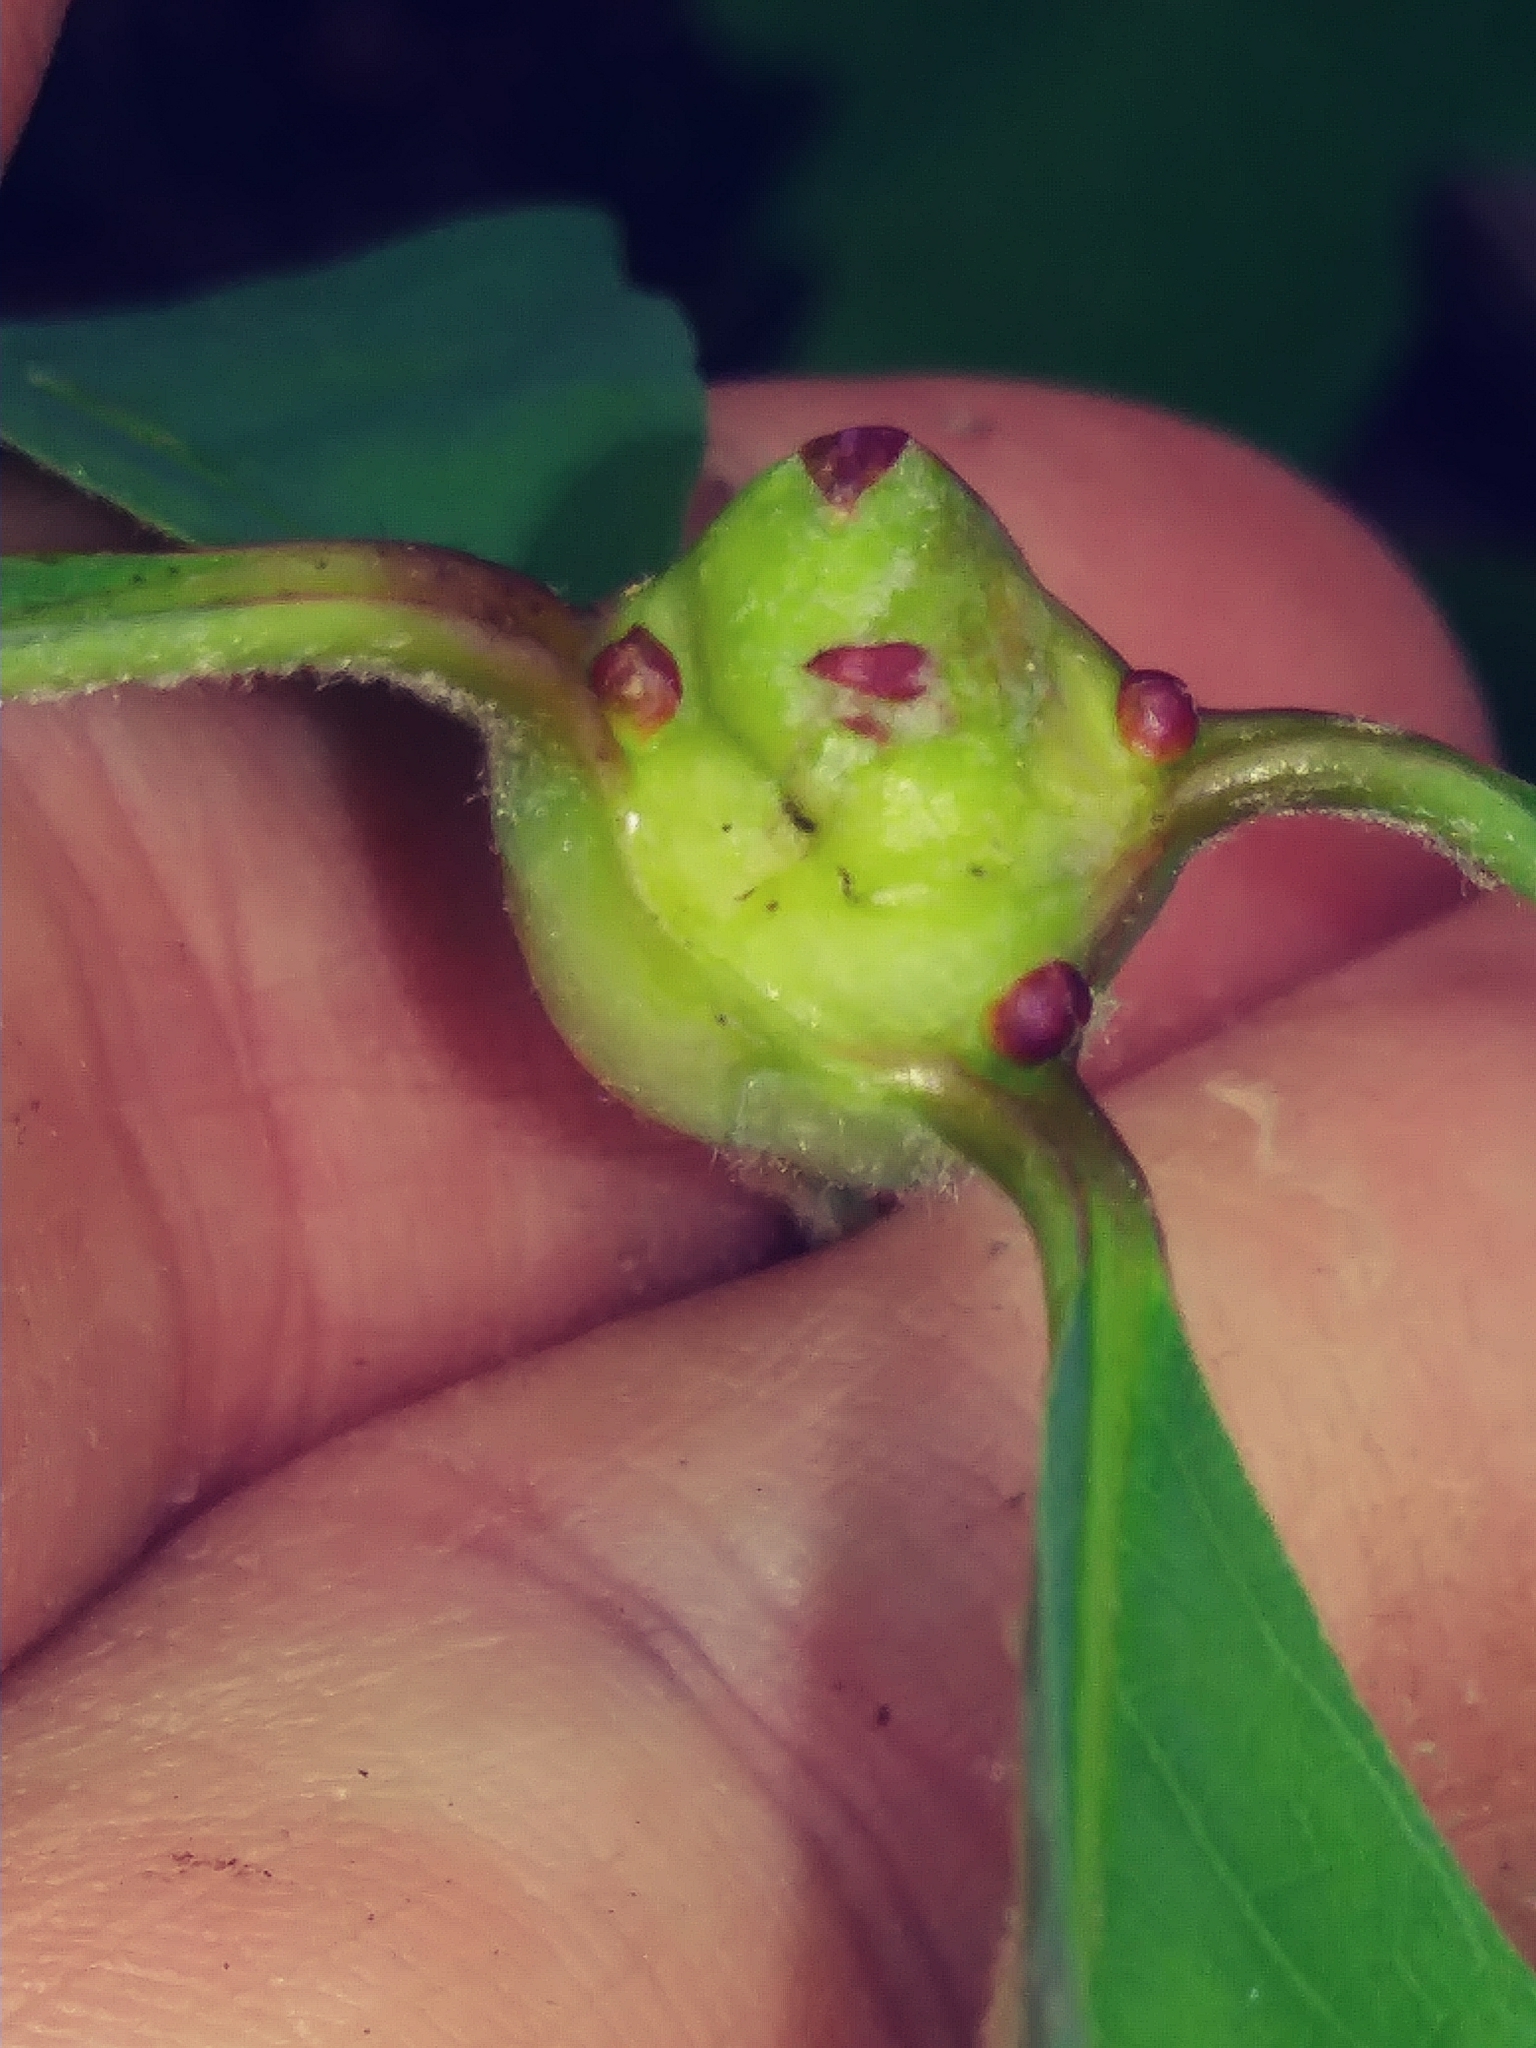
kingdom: Animalia
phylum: Arthropoda
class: Insecta
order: Hymenoptera
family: Cynipidae
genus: Callirhytis
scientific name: Callirhytis clavula
